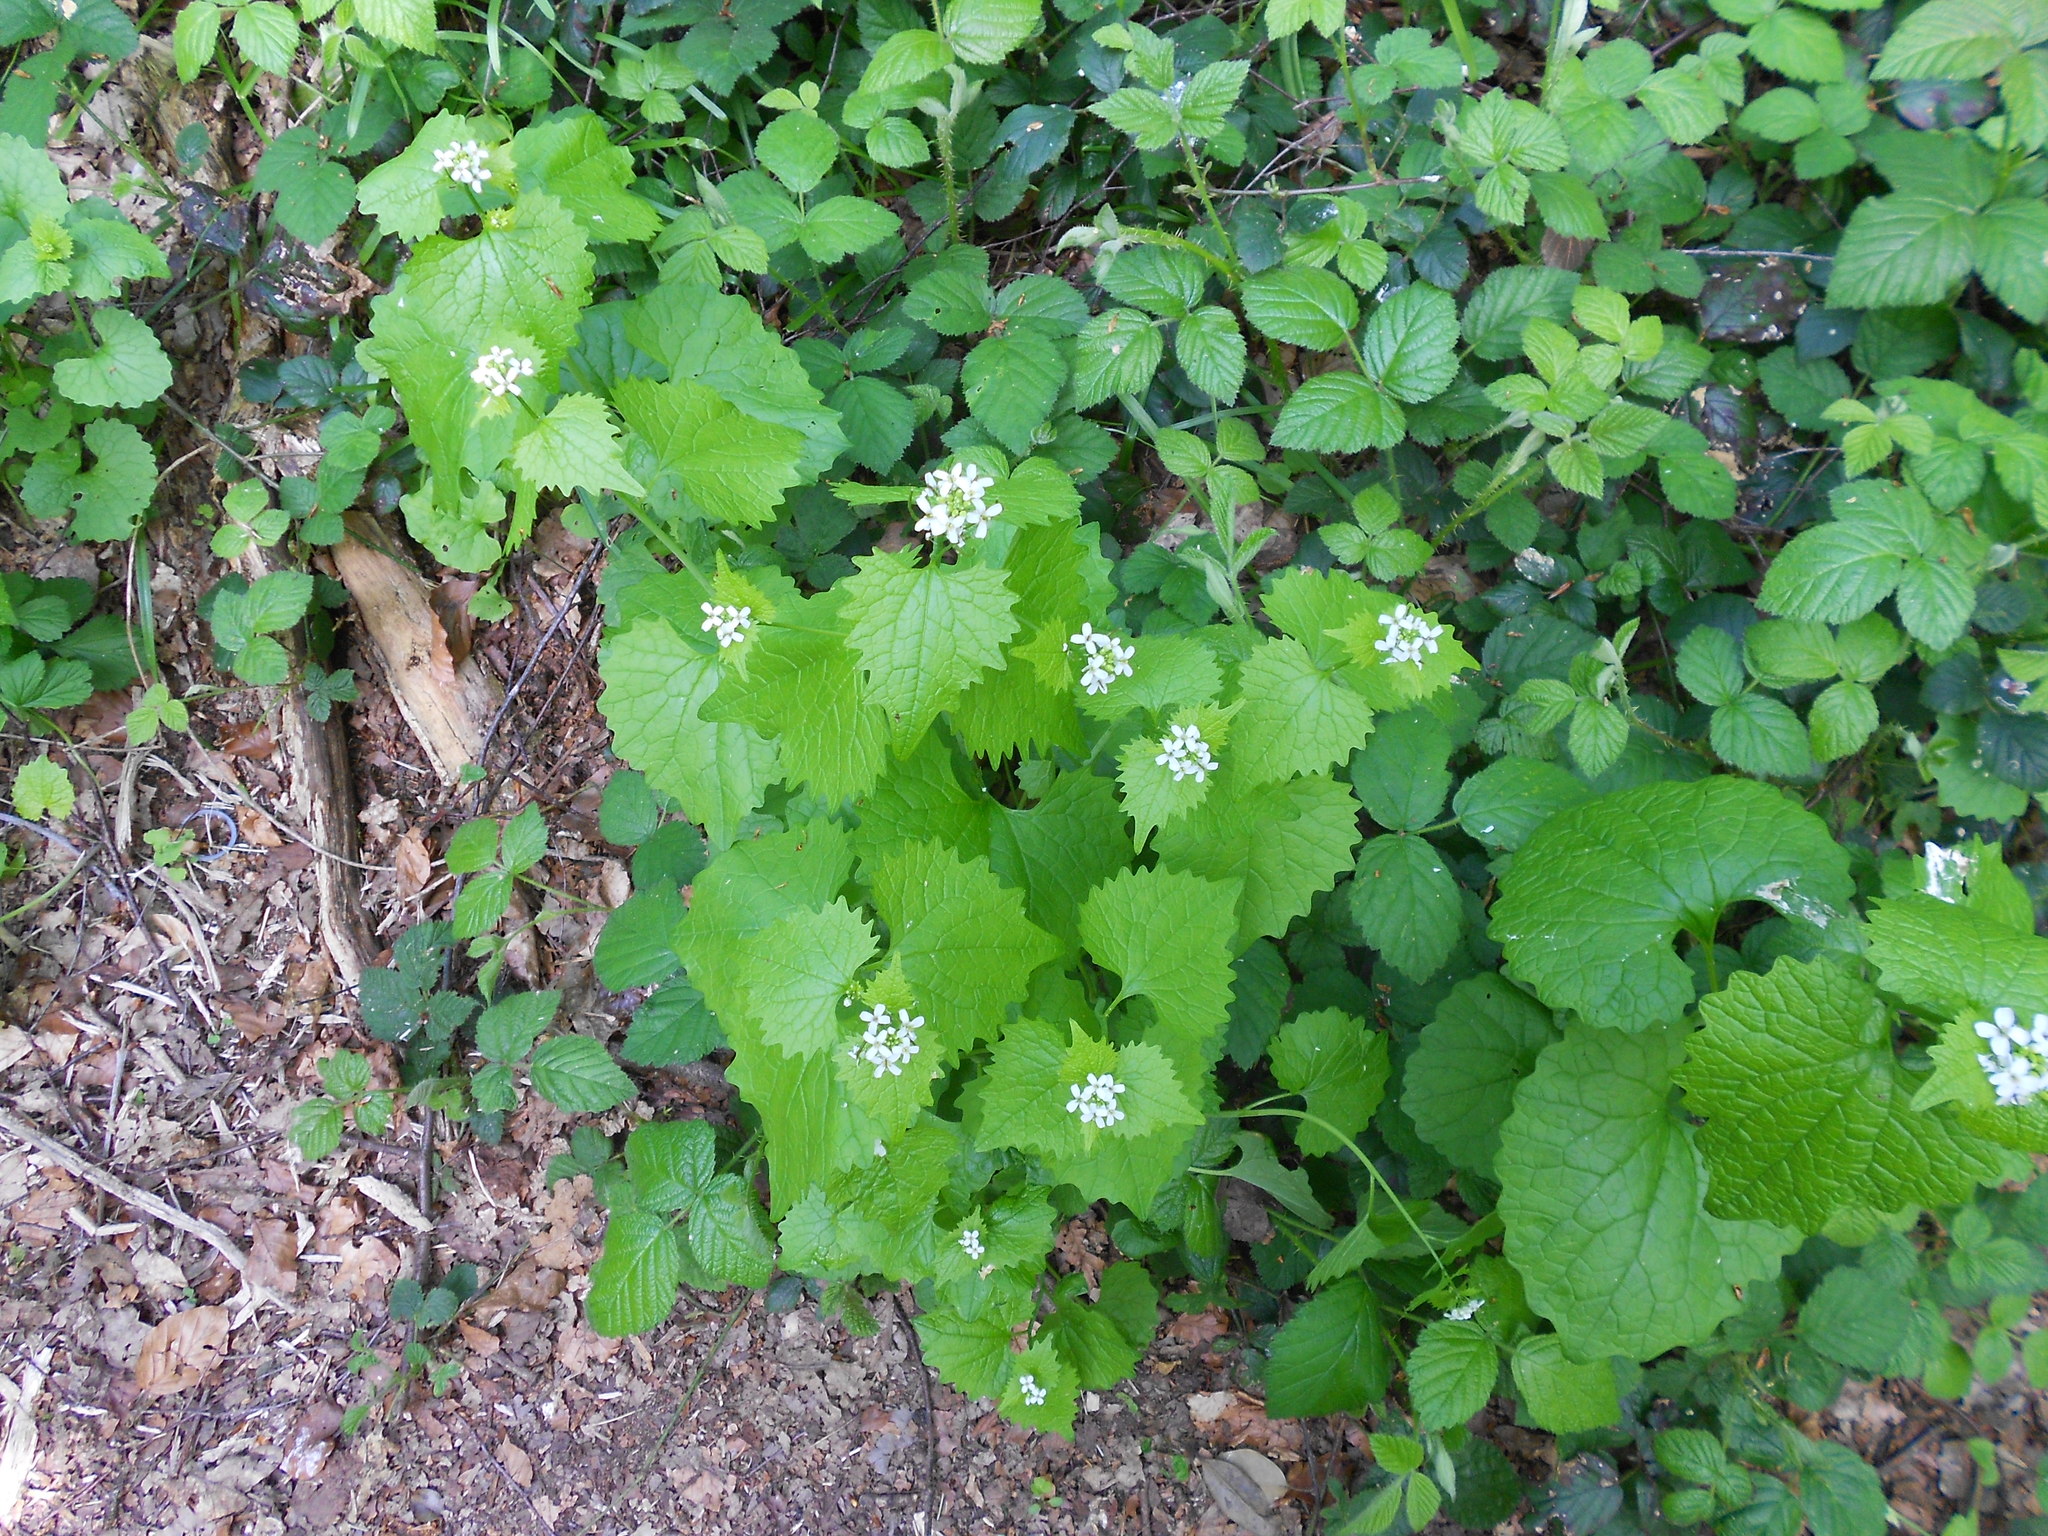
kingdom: Plantae
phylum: Tracheophyta
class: Magnoliopsida
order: Brassicales
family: Brassicaceae
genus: Alliaria
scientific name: Alliaria petiolata
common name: Garlic mustard
